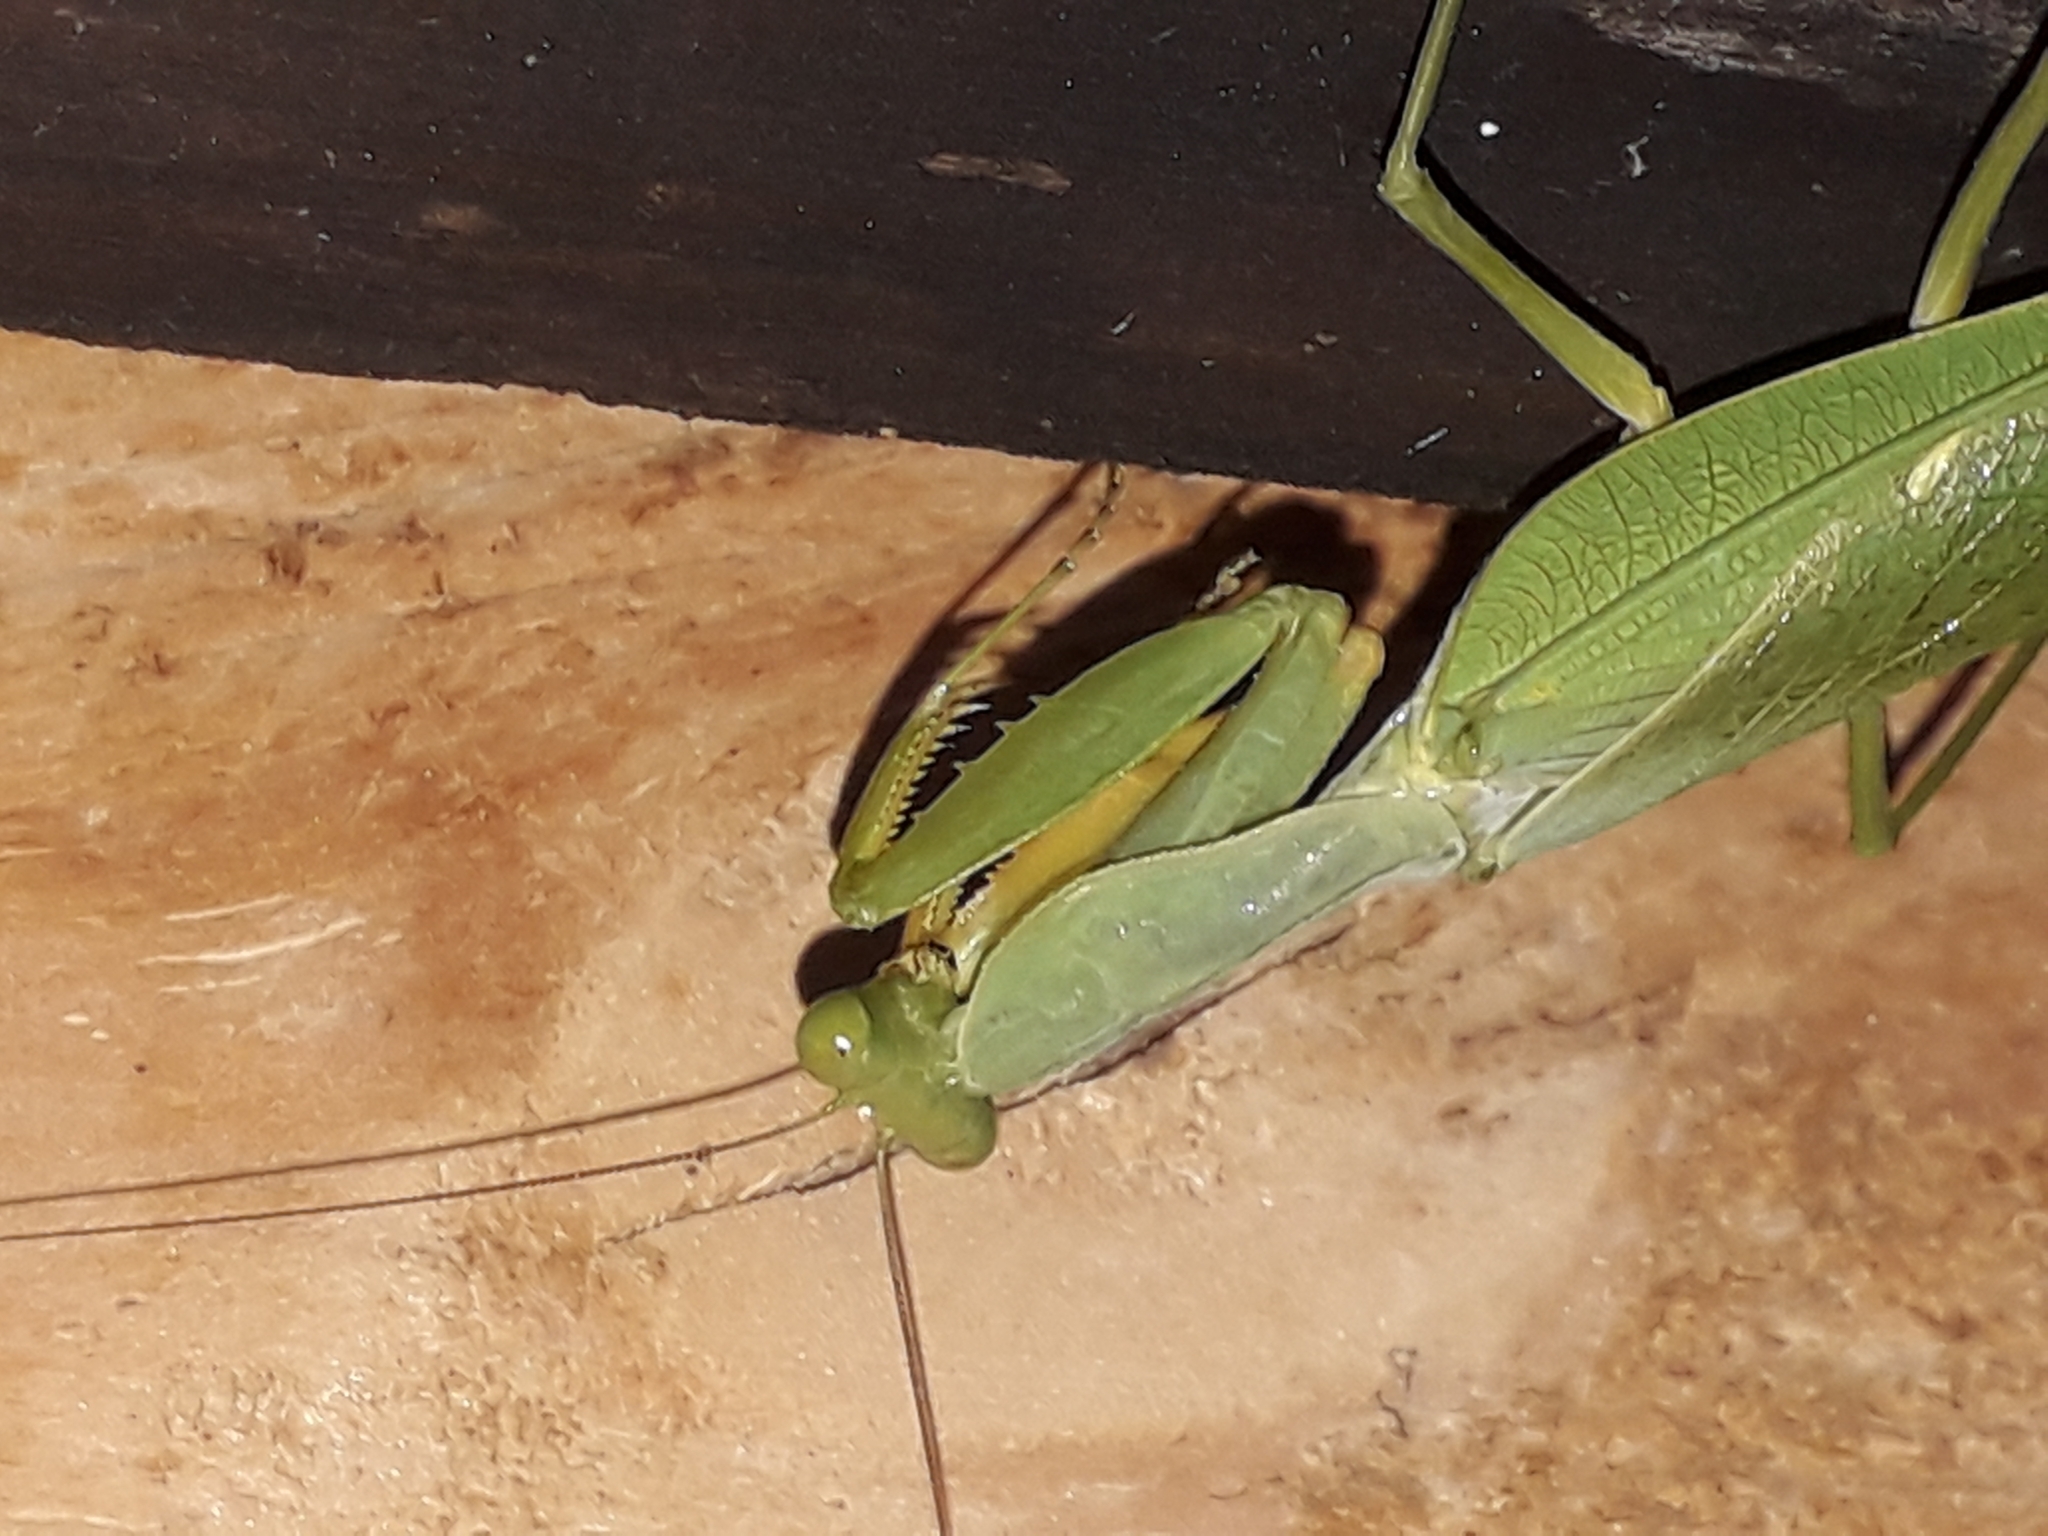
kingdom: Animalia
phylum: Arthropoda
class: Insecta
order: Mantodea
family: Mantidae
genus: Sphodromantis
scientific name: Sphodromantis lineola
